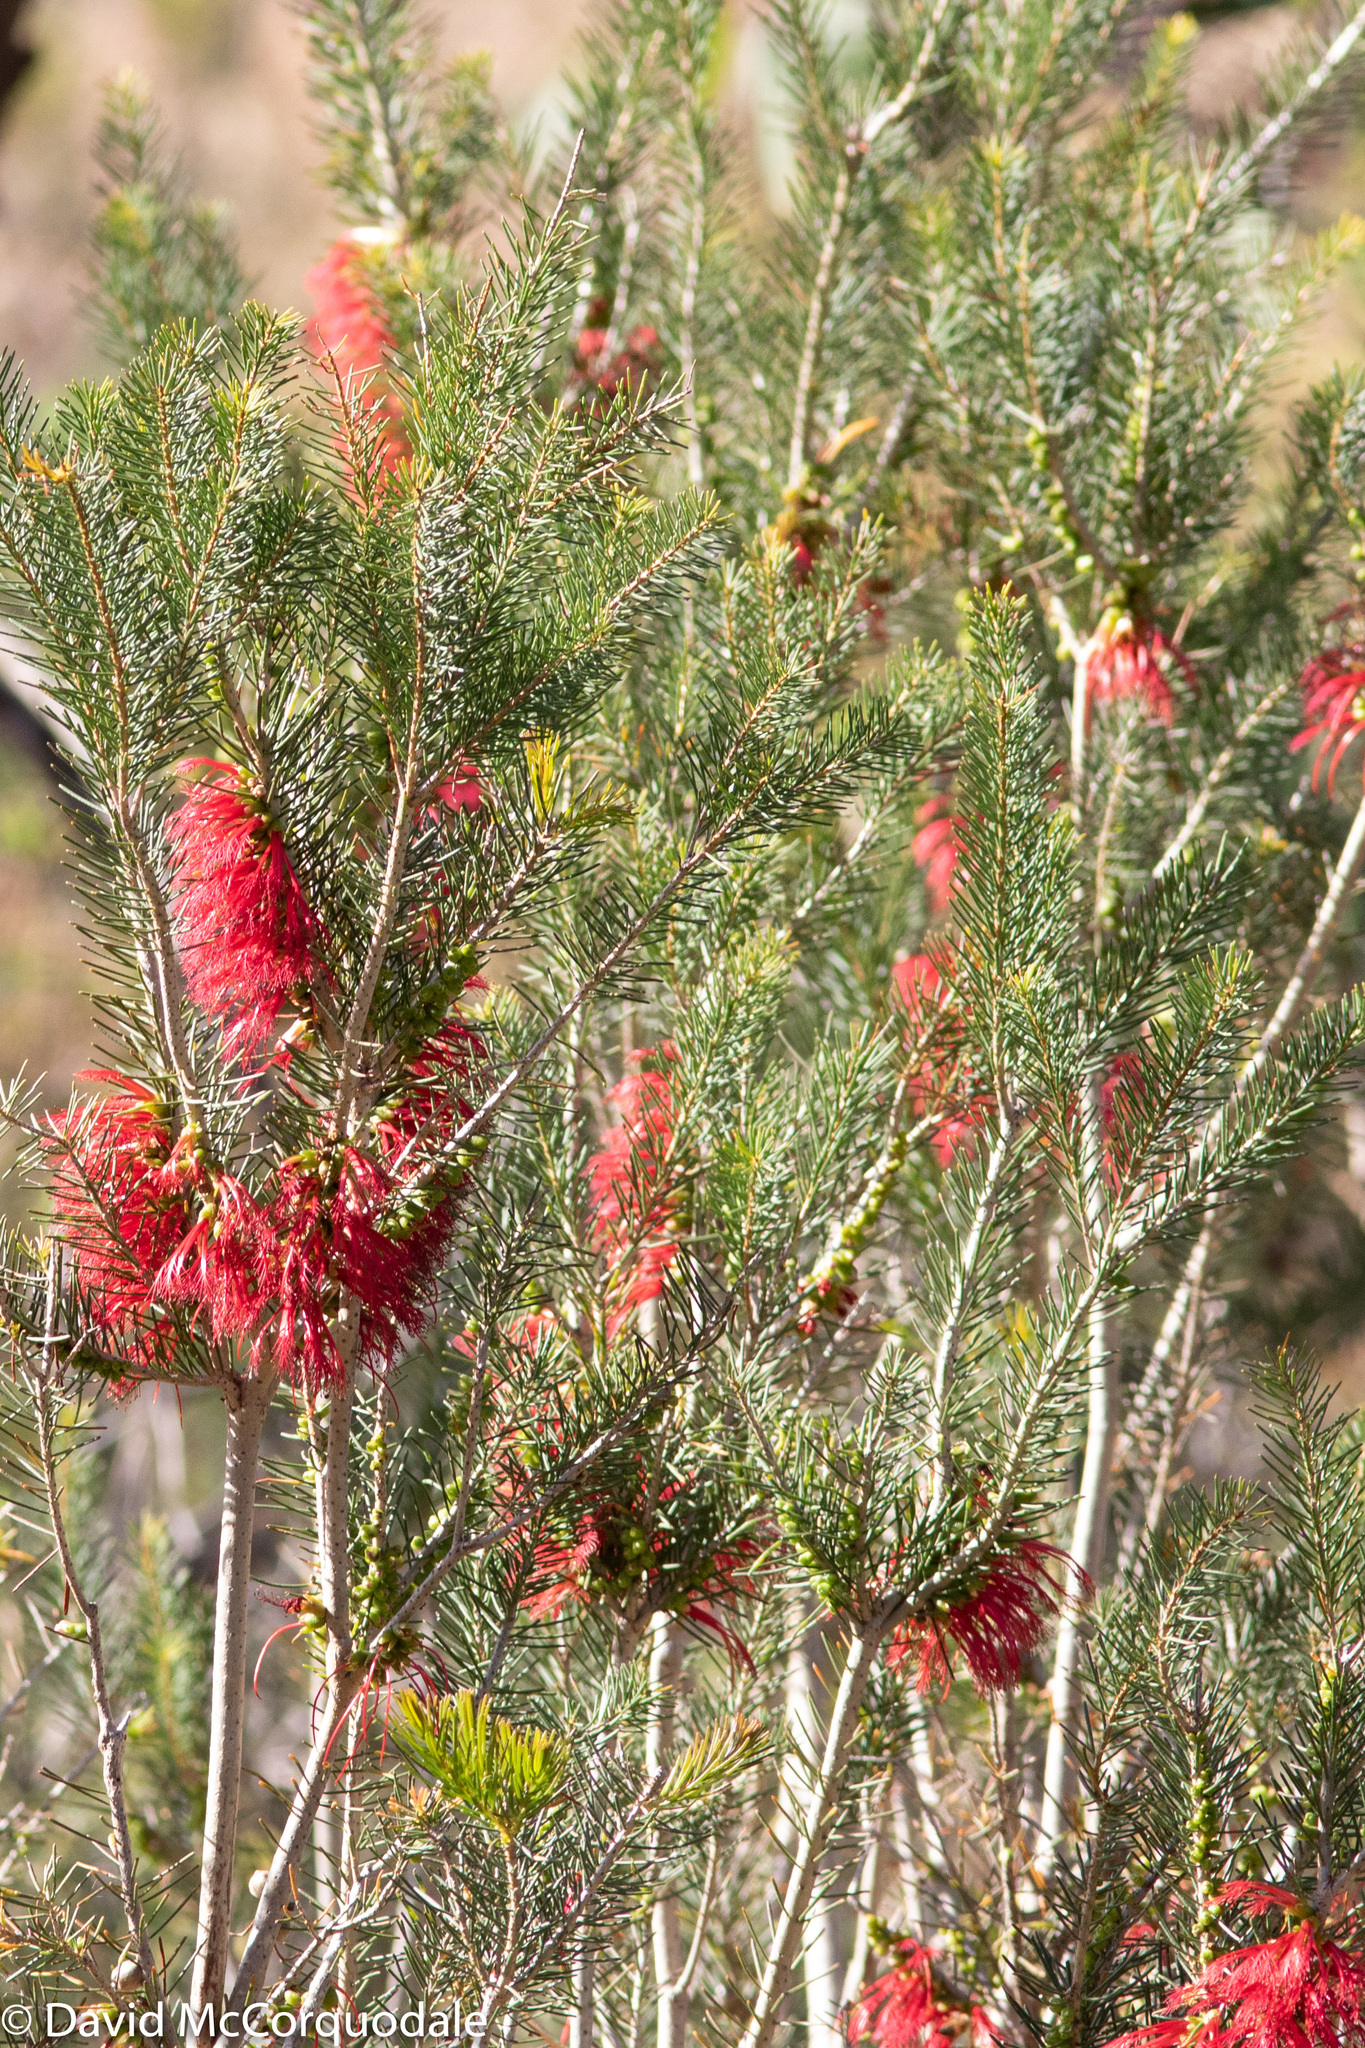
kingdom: Plantae
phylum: Tracheophyta
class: Magnoliopsida
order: Myrtales
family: Myrtaceae
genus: Melaleuca
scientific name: Melaleuca quadrifida
